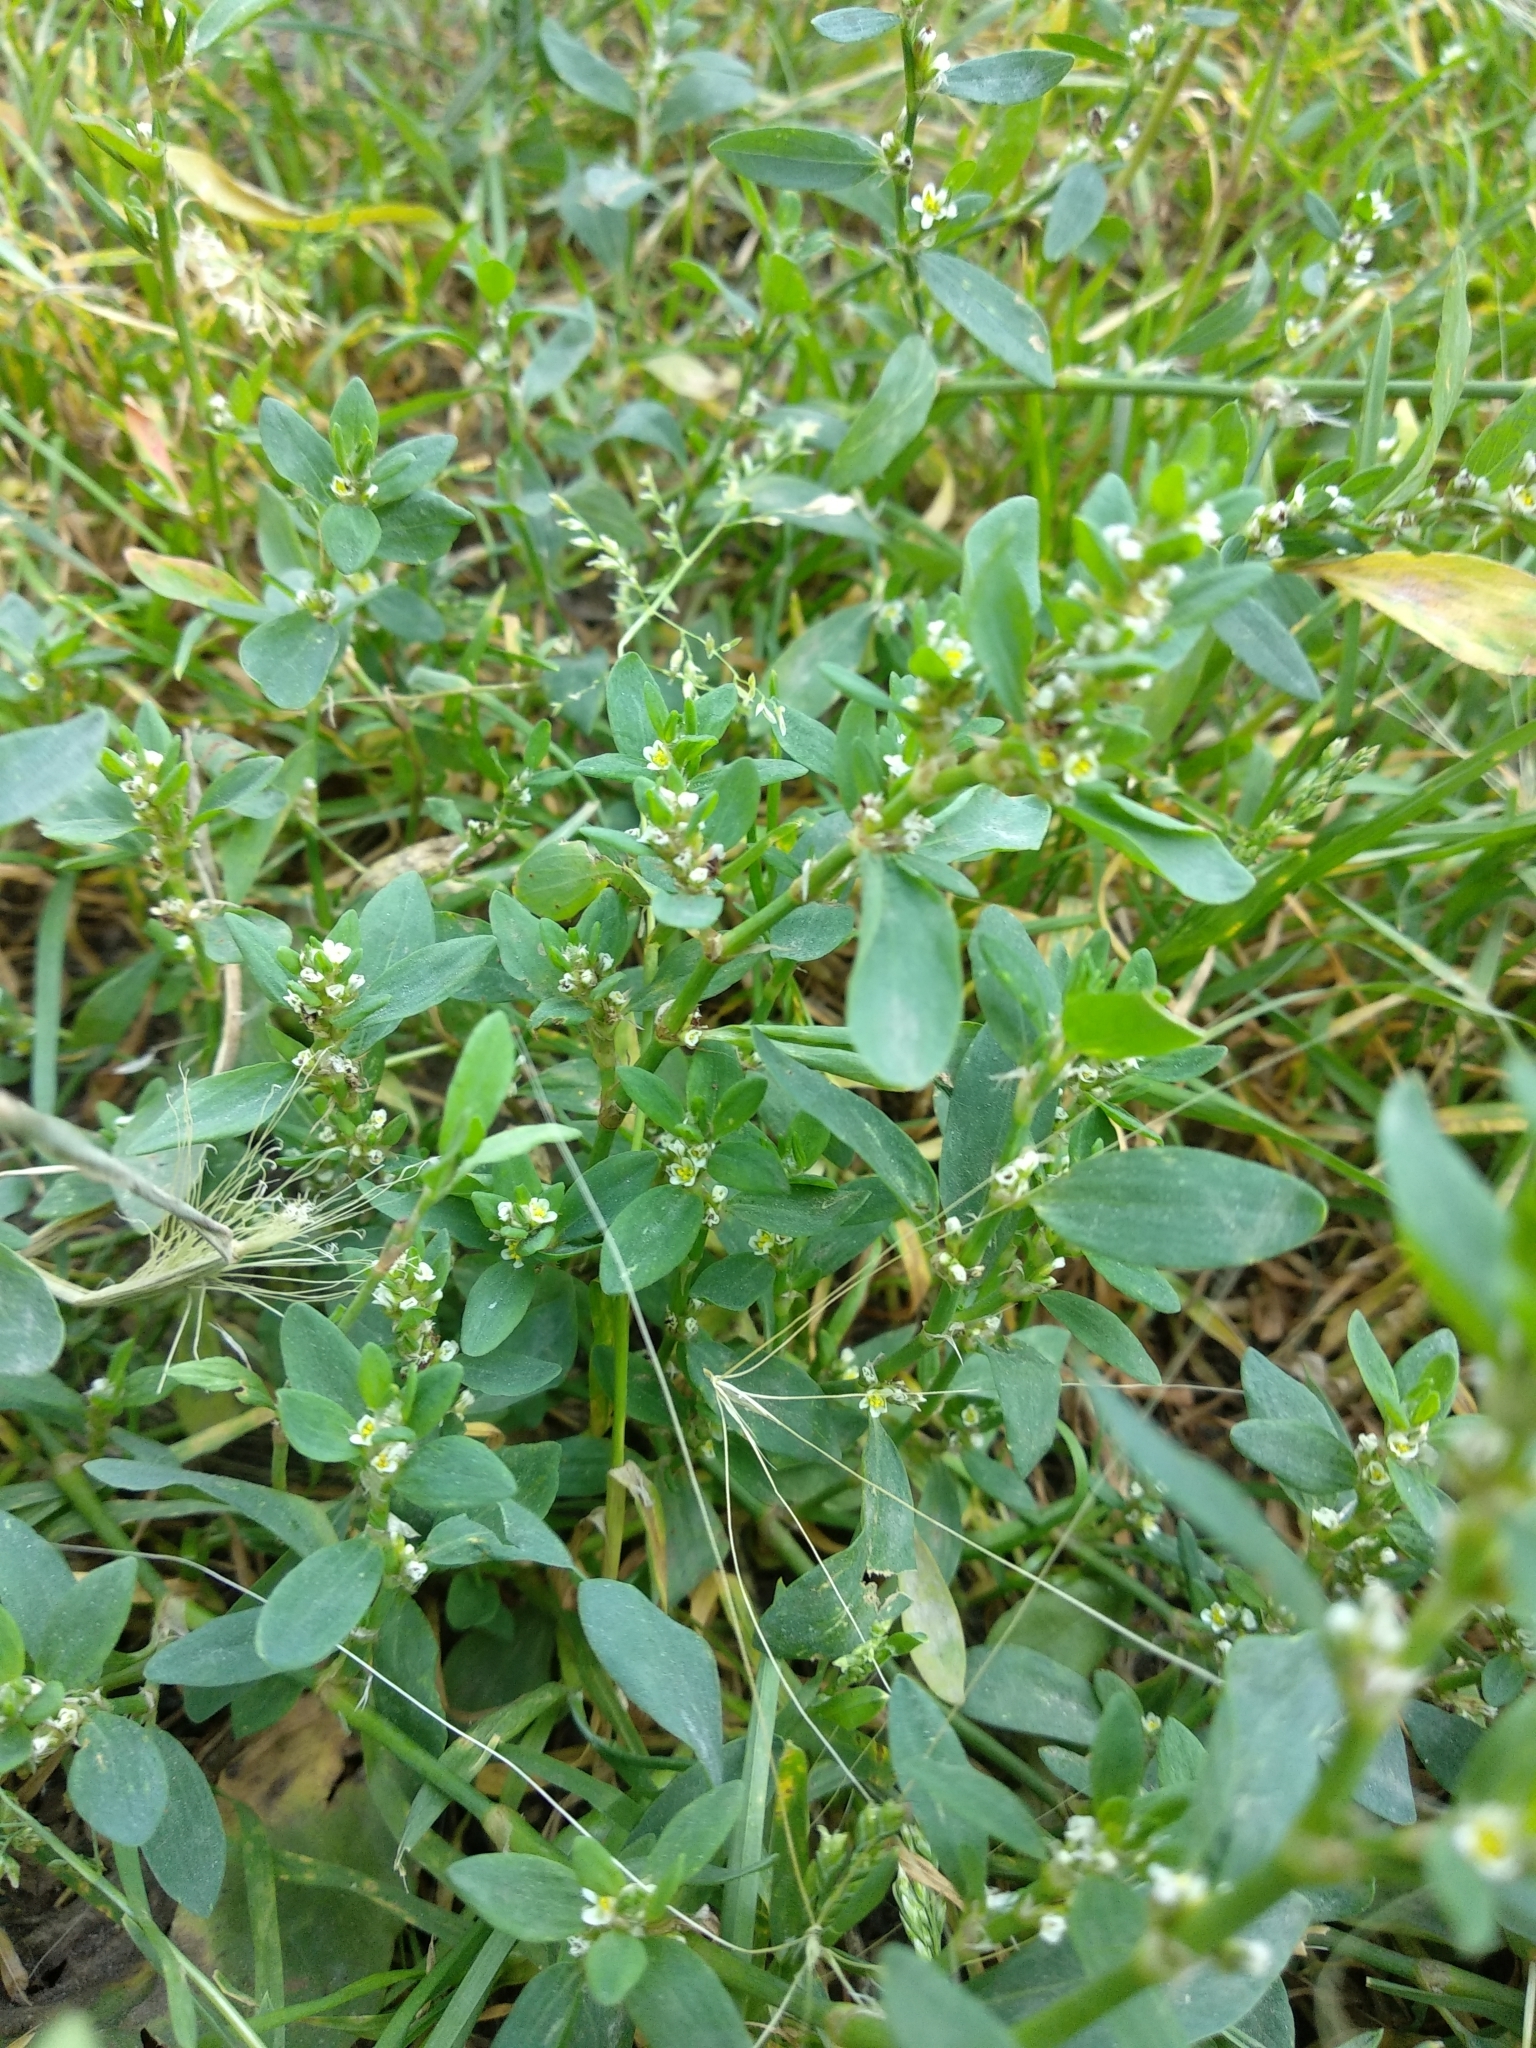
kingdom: Plantae
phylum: Tracheophyta
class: Magnoliopsida
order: Caryophyllales
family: Polygonaceae
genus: Polygonum
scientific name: Polygonum
